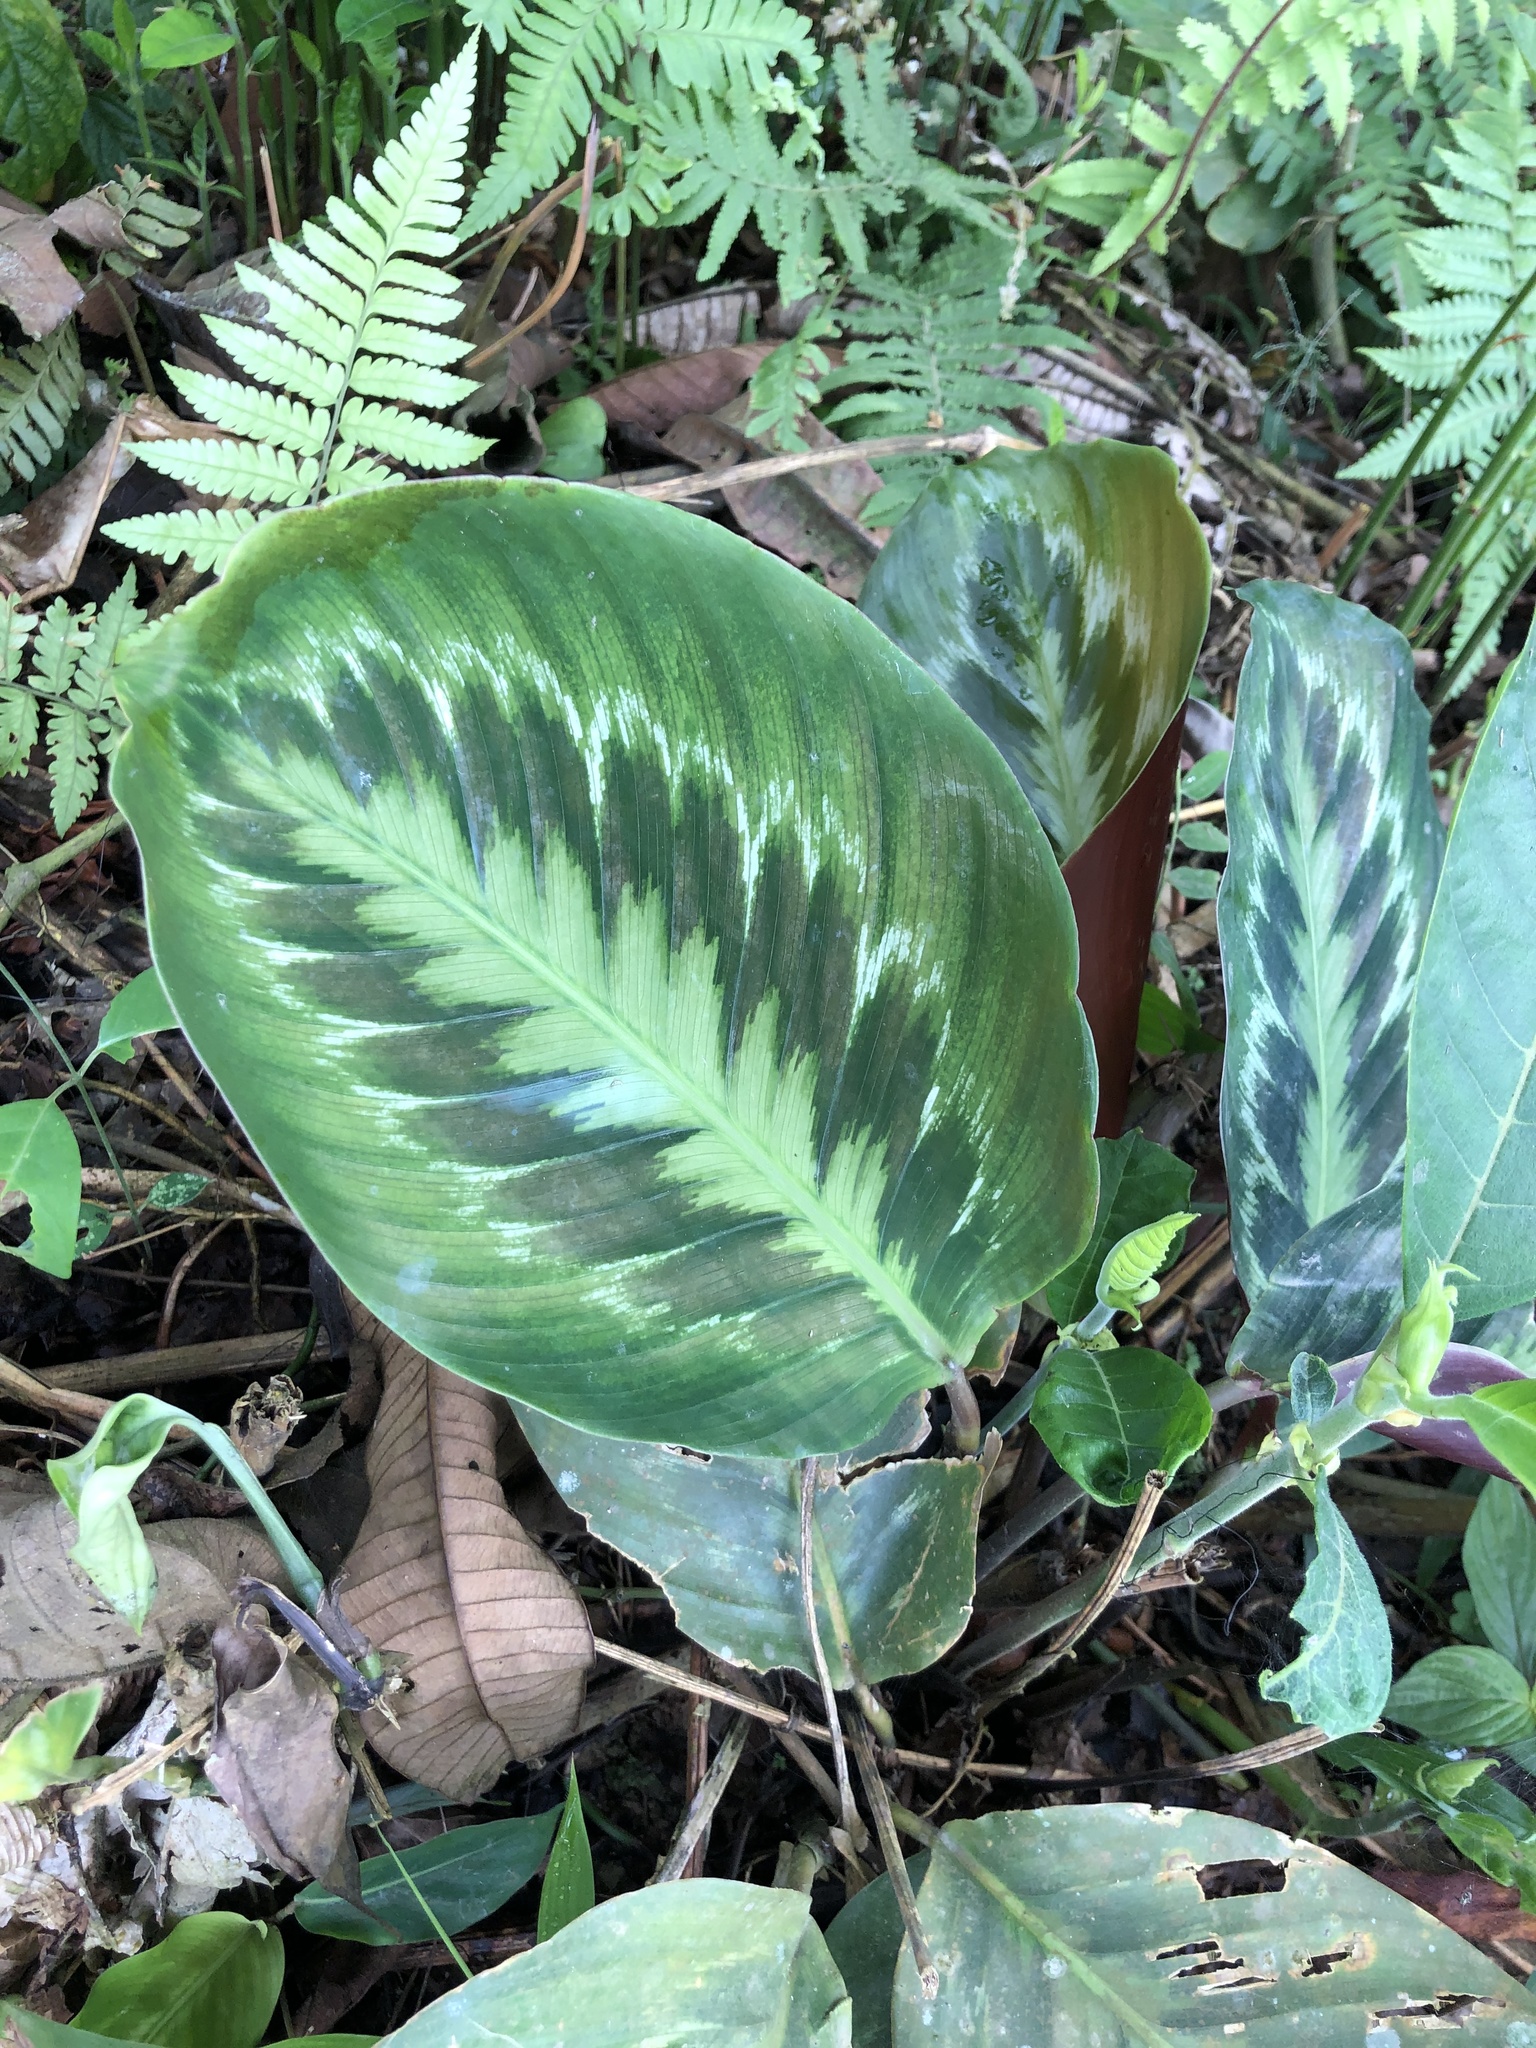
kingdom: Plantae
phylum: Tracheophyta
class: Liliopsida
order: Zingiberales
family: Marantaceae
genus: Goeppertia
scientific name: Goeppertia metallica
